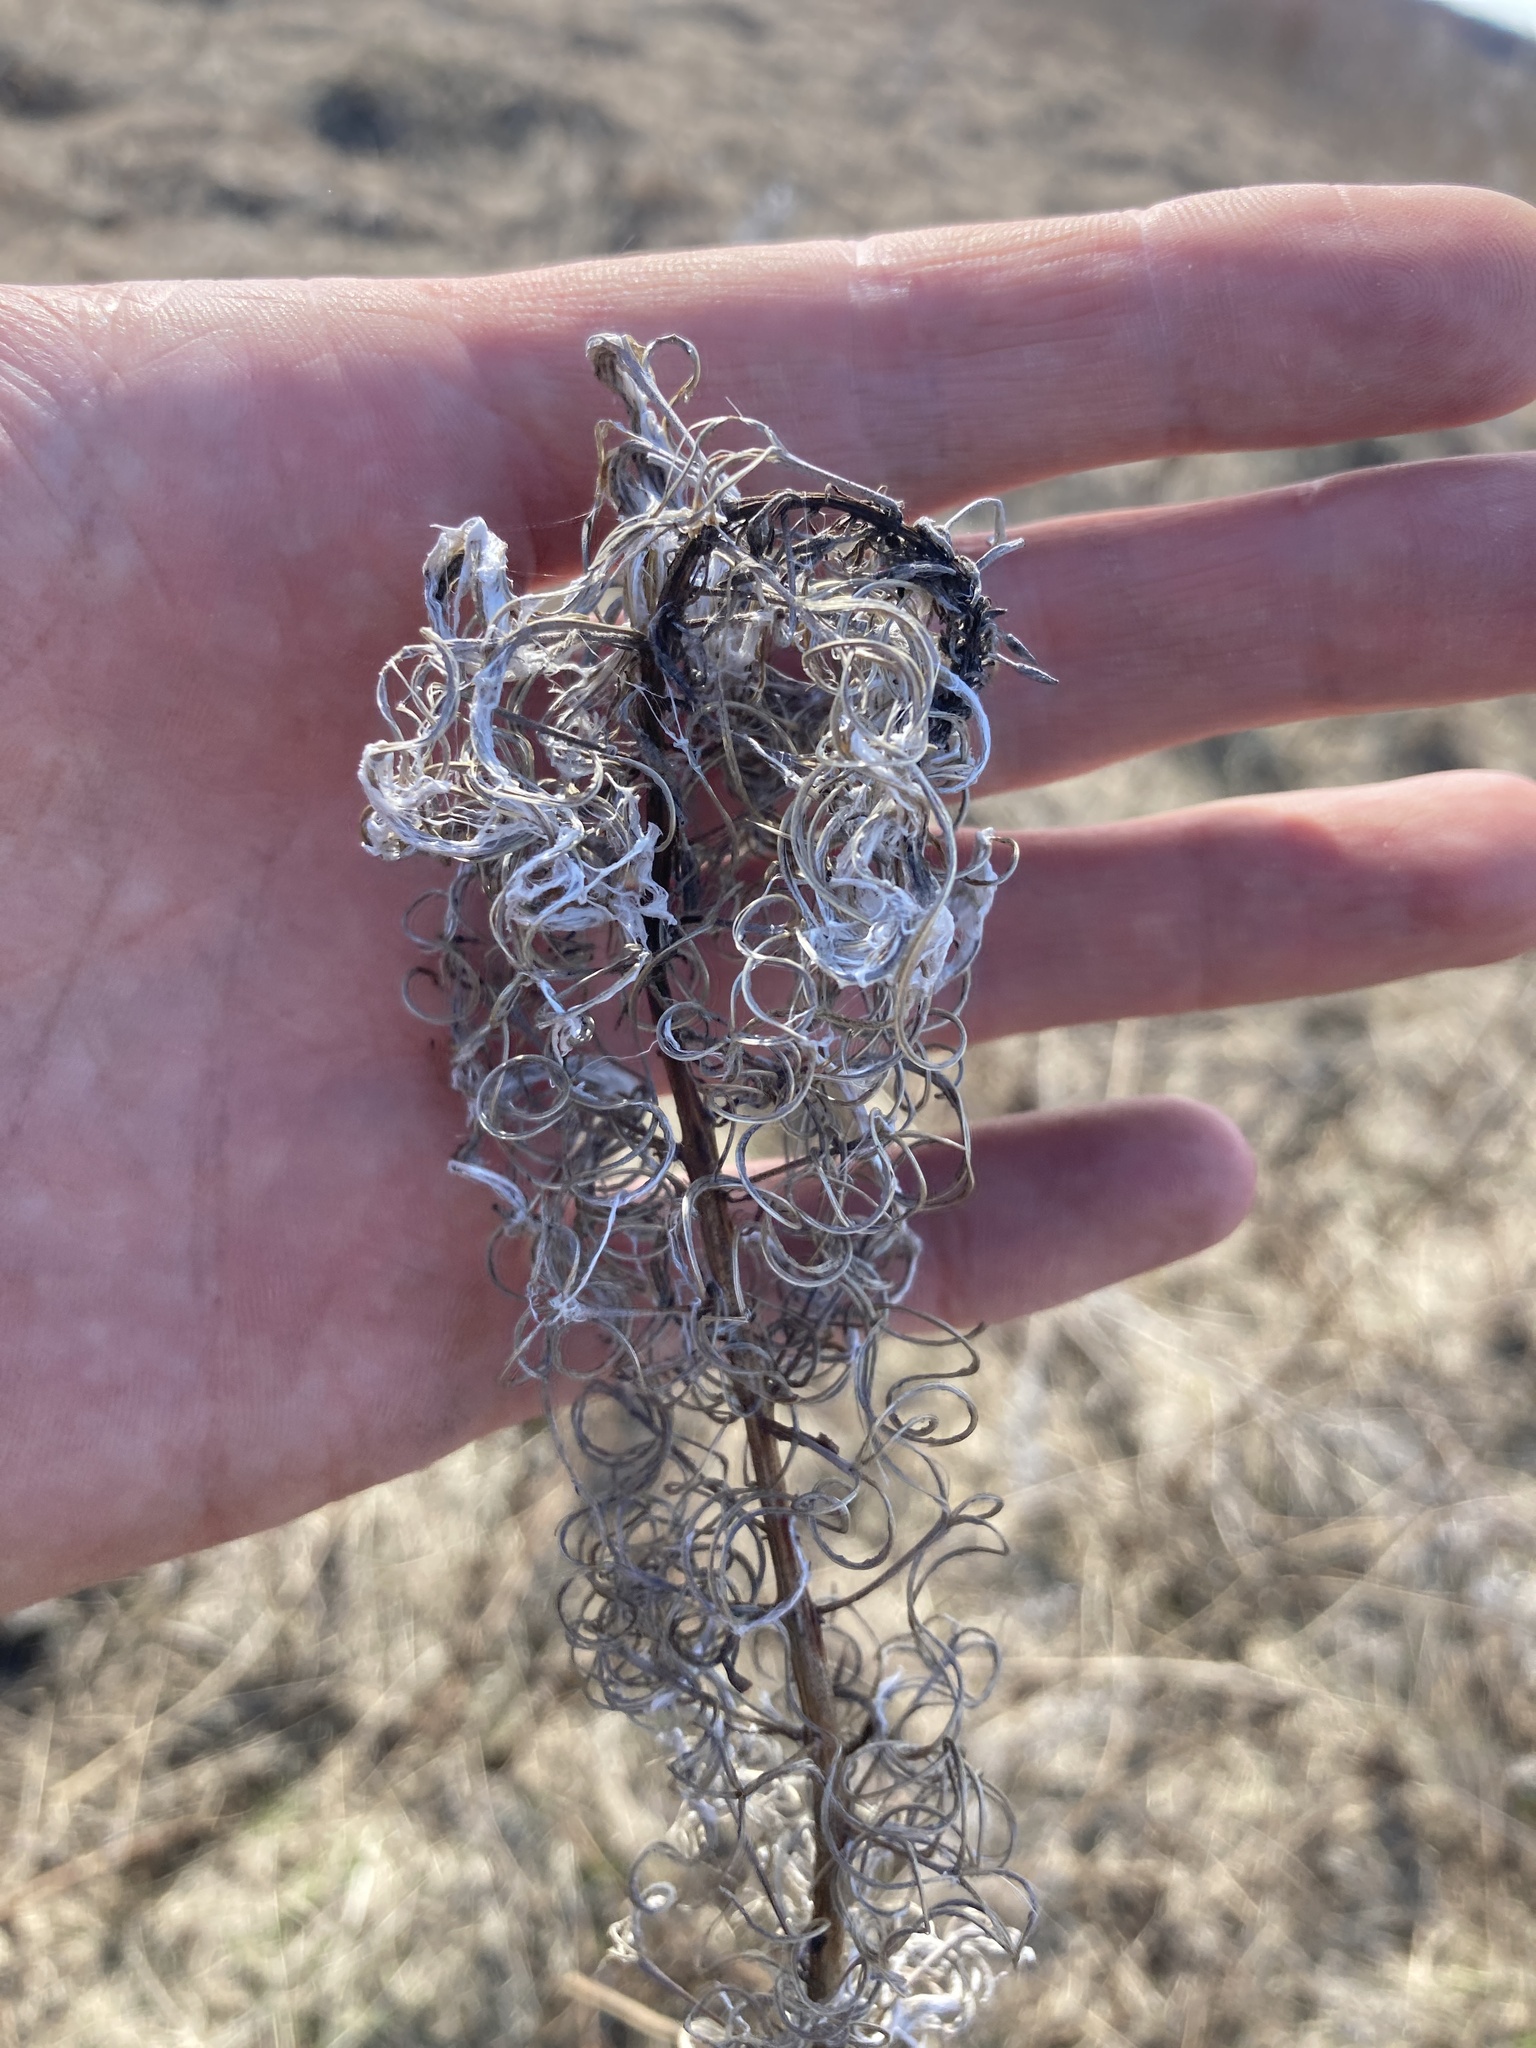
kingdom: Plantae
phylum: Tracheophyta
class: Magnoliopsida
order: Myrtales
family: Onagraceae
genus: Chamaenerion
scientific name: Chamaenerion angustifolium
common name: Fireweed
